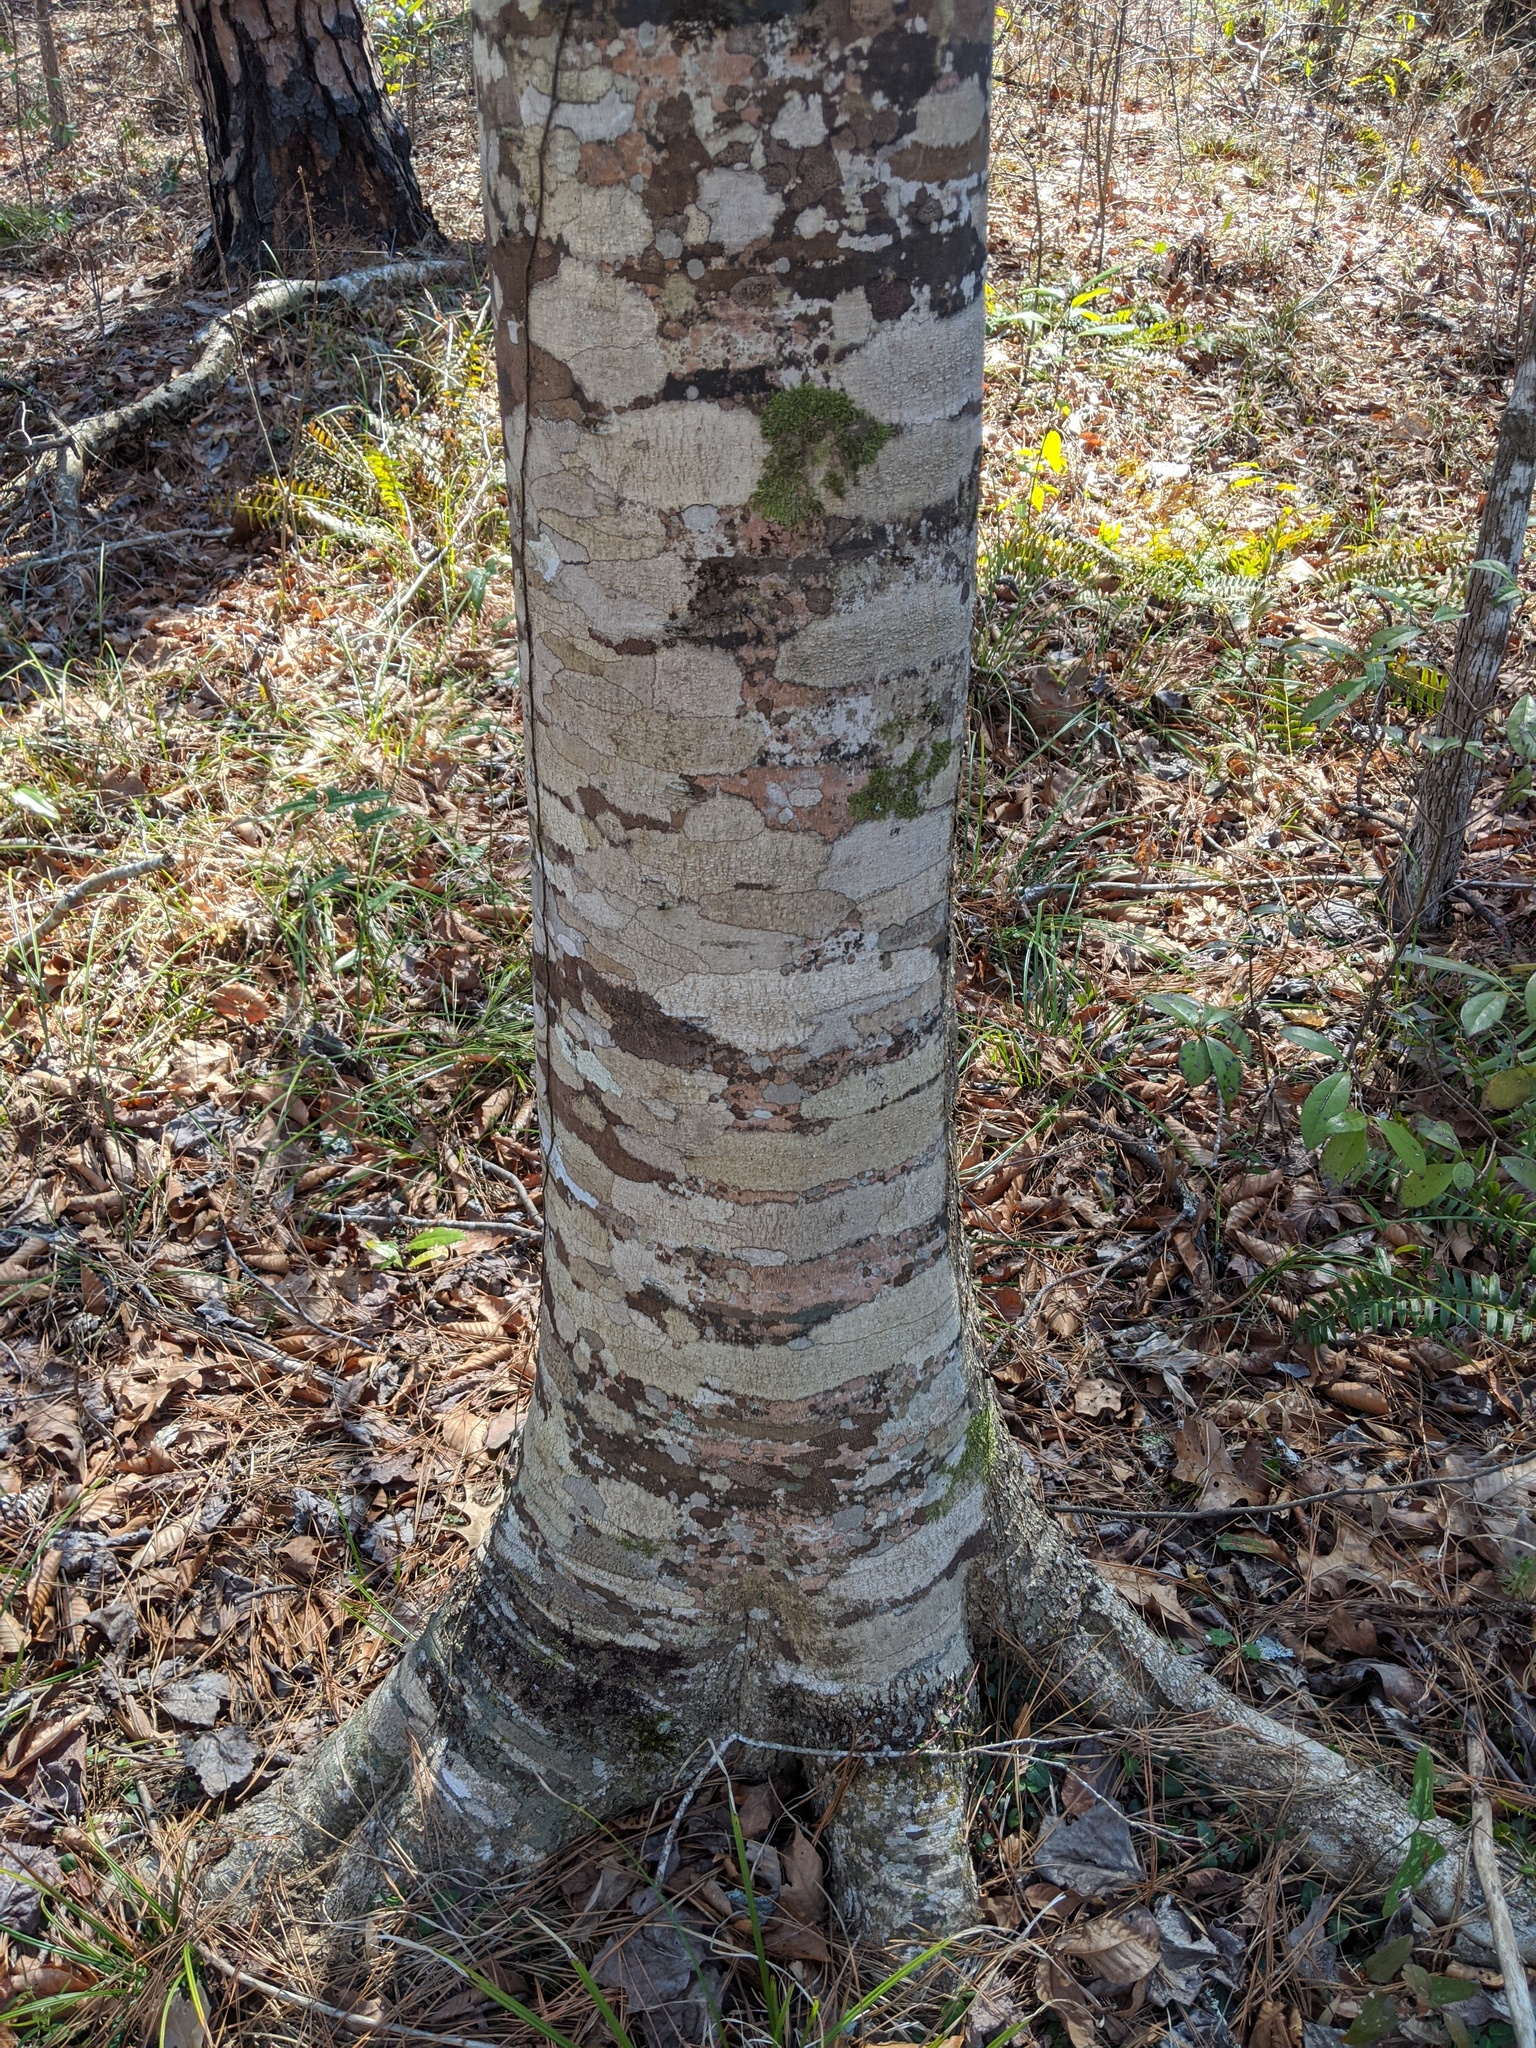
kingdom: Plantae
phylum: Tracheophyta
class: Magnoliopsida
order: Fagales
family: Fagaceae
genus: Fagus
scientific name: Fagus grandifolia
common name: American beech
